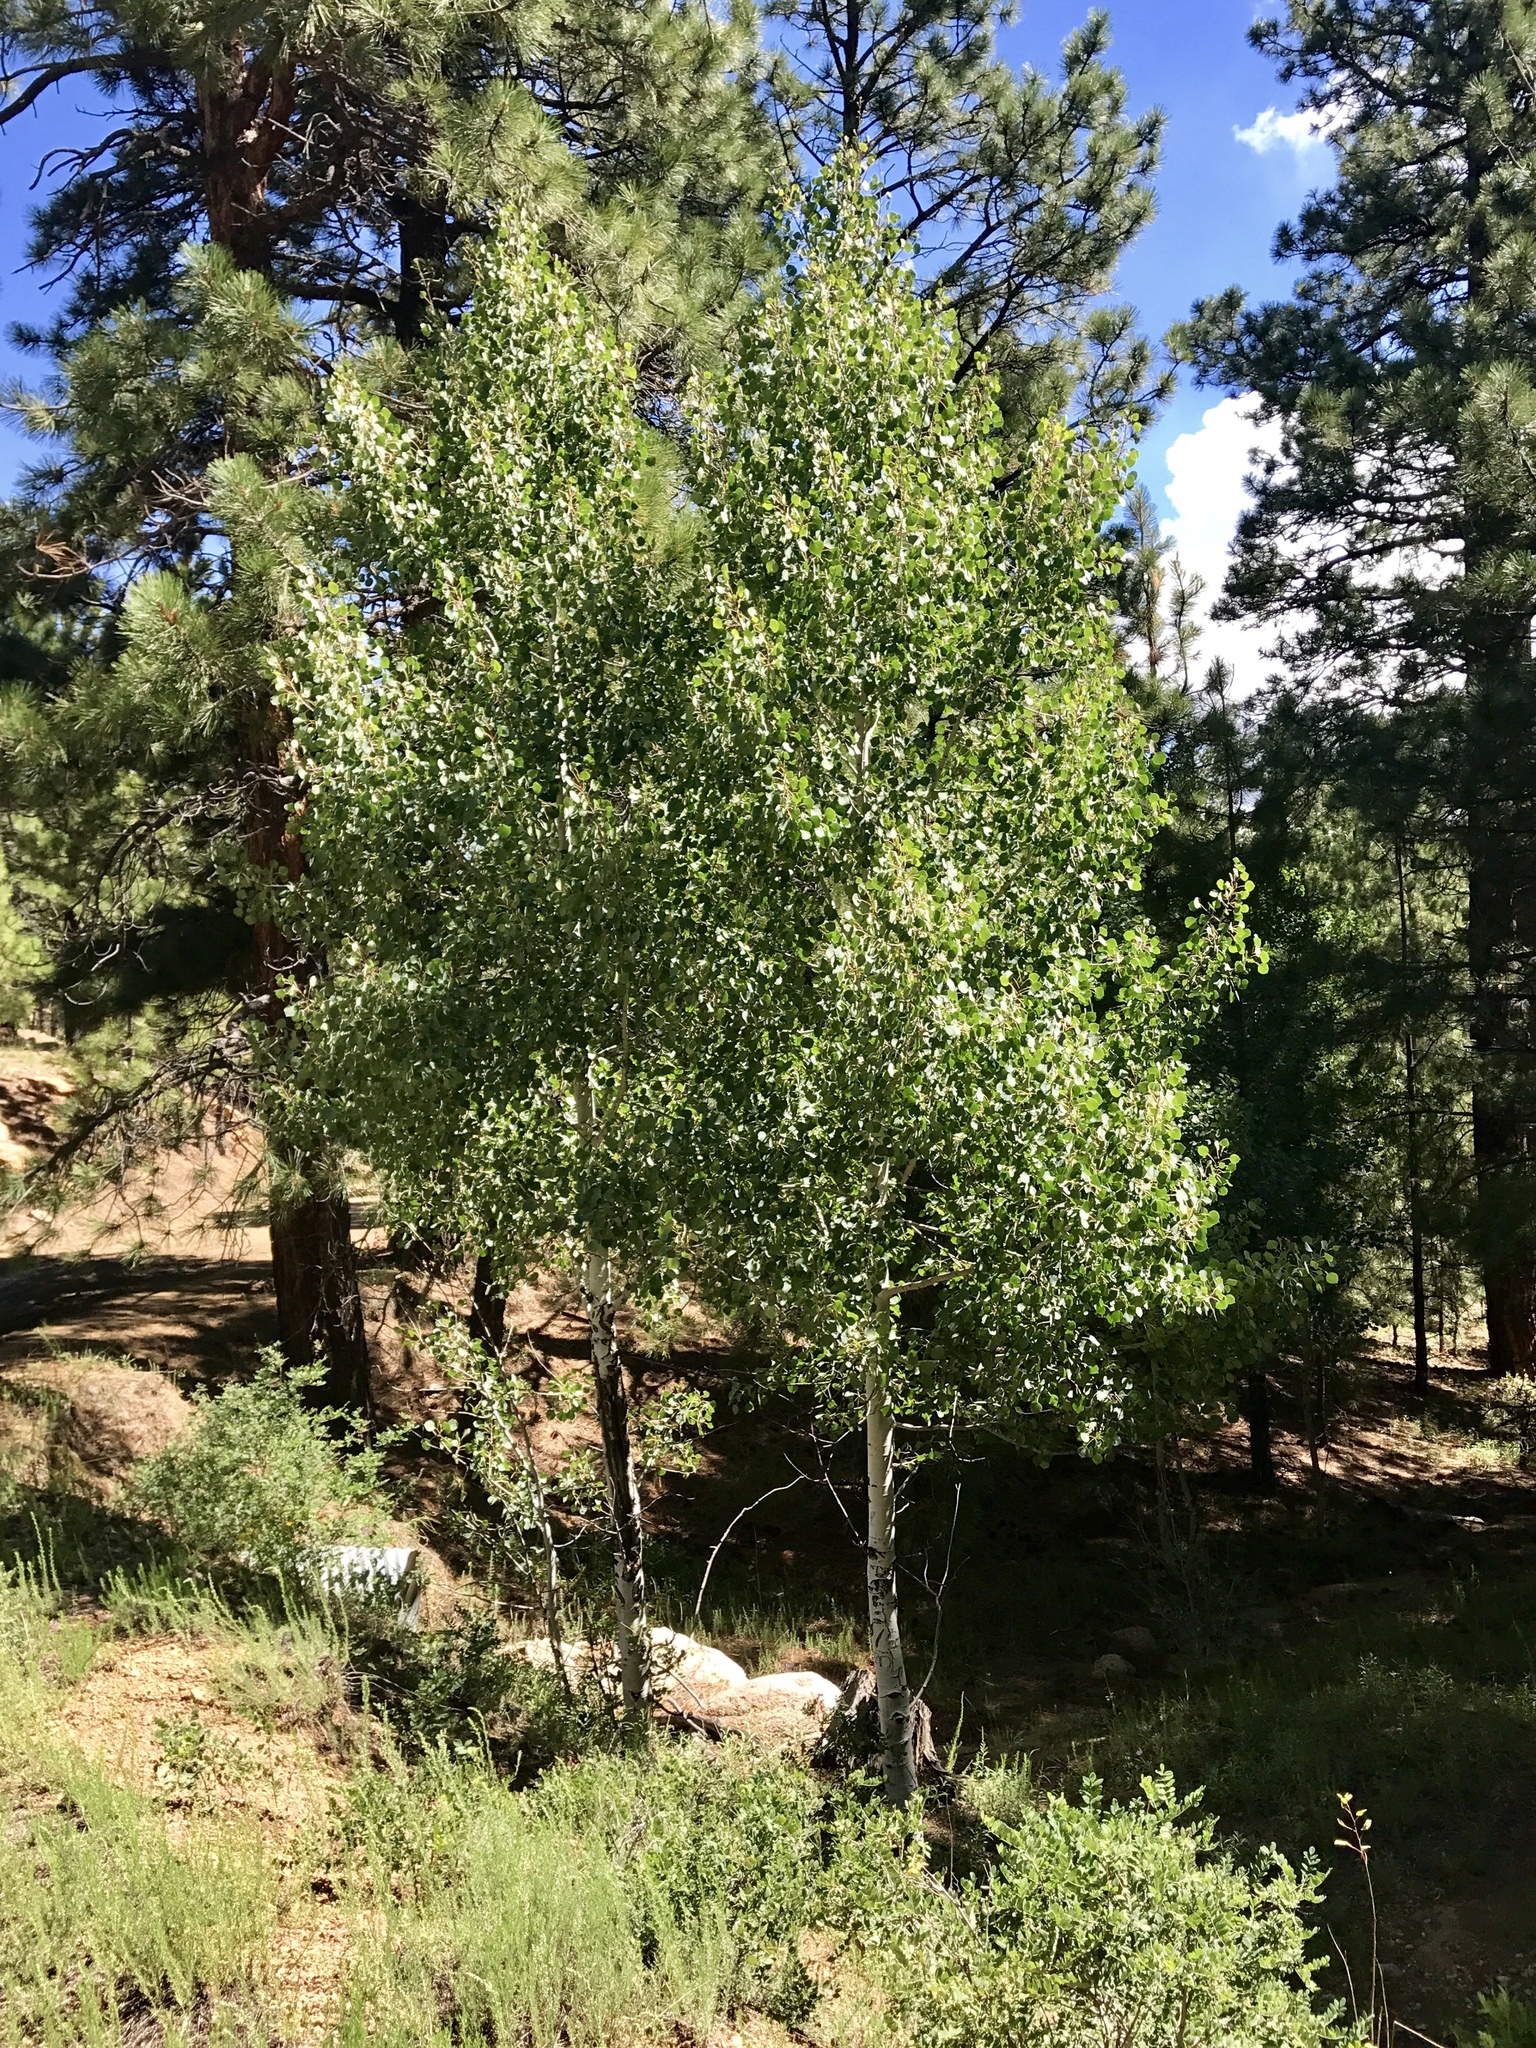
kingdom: Plantae
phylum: Tracheophyta
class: Magnoliopsida
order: Malpighiales
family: Salicaceae
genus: Populus
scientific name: Populus tremuloides
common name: Quaking aspen
